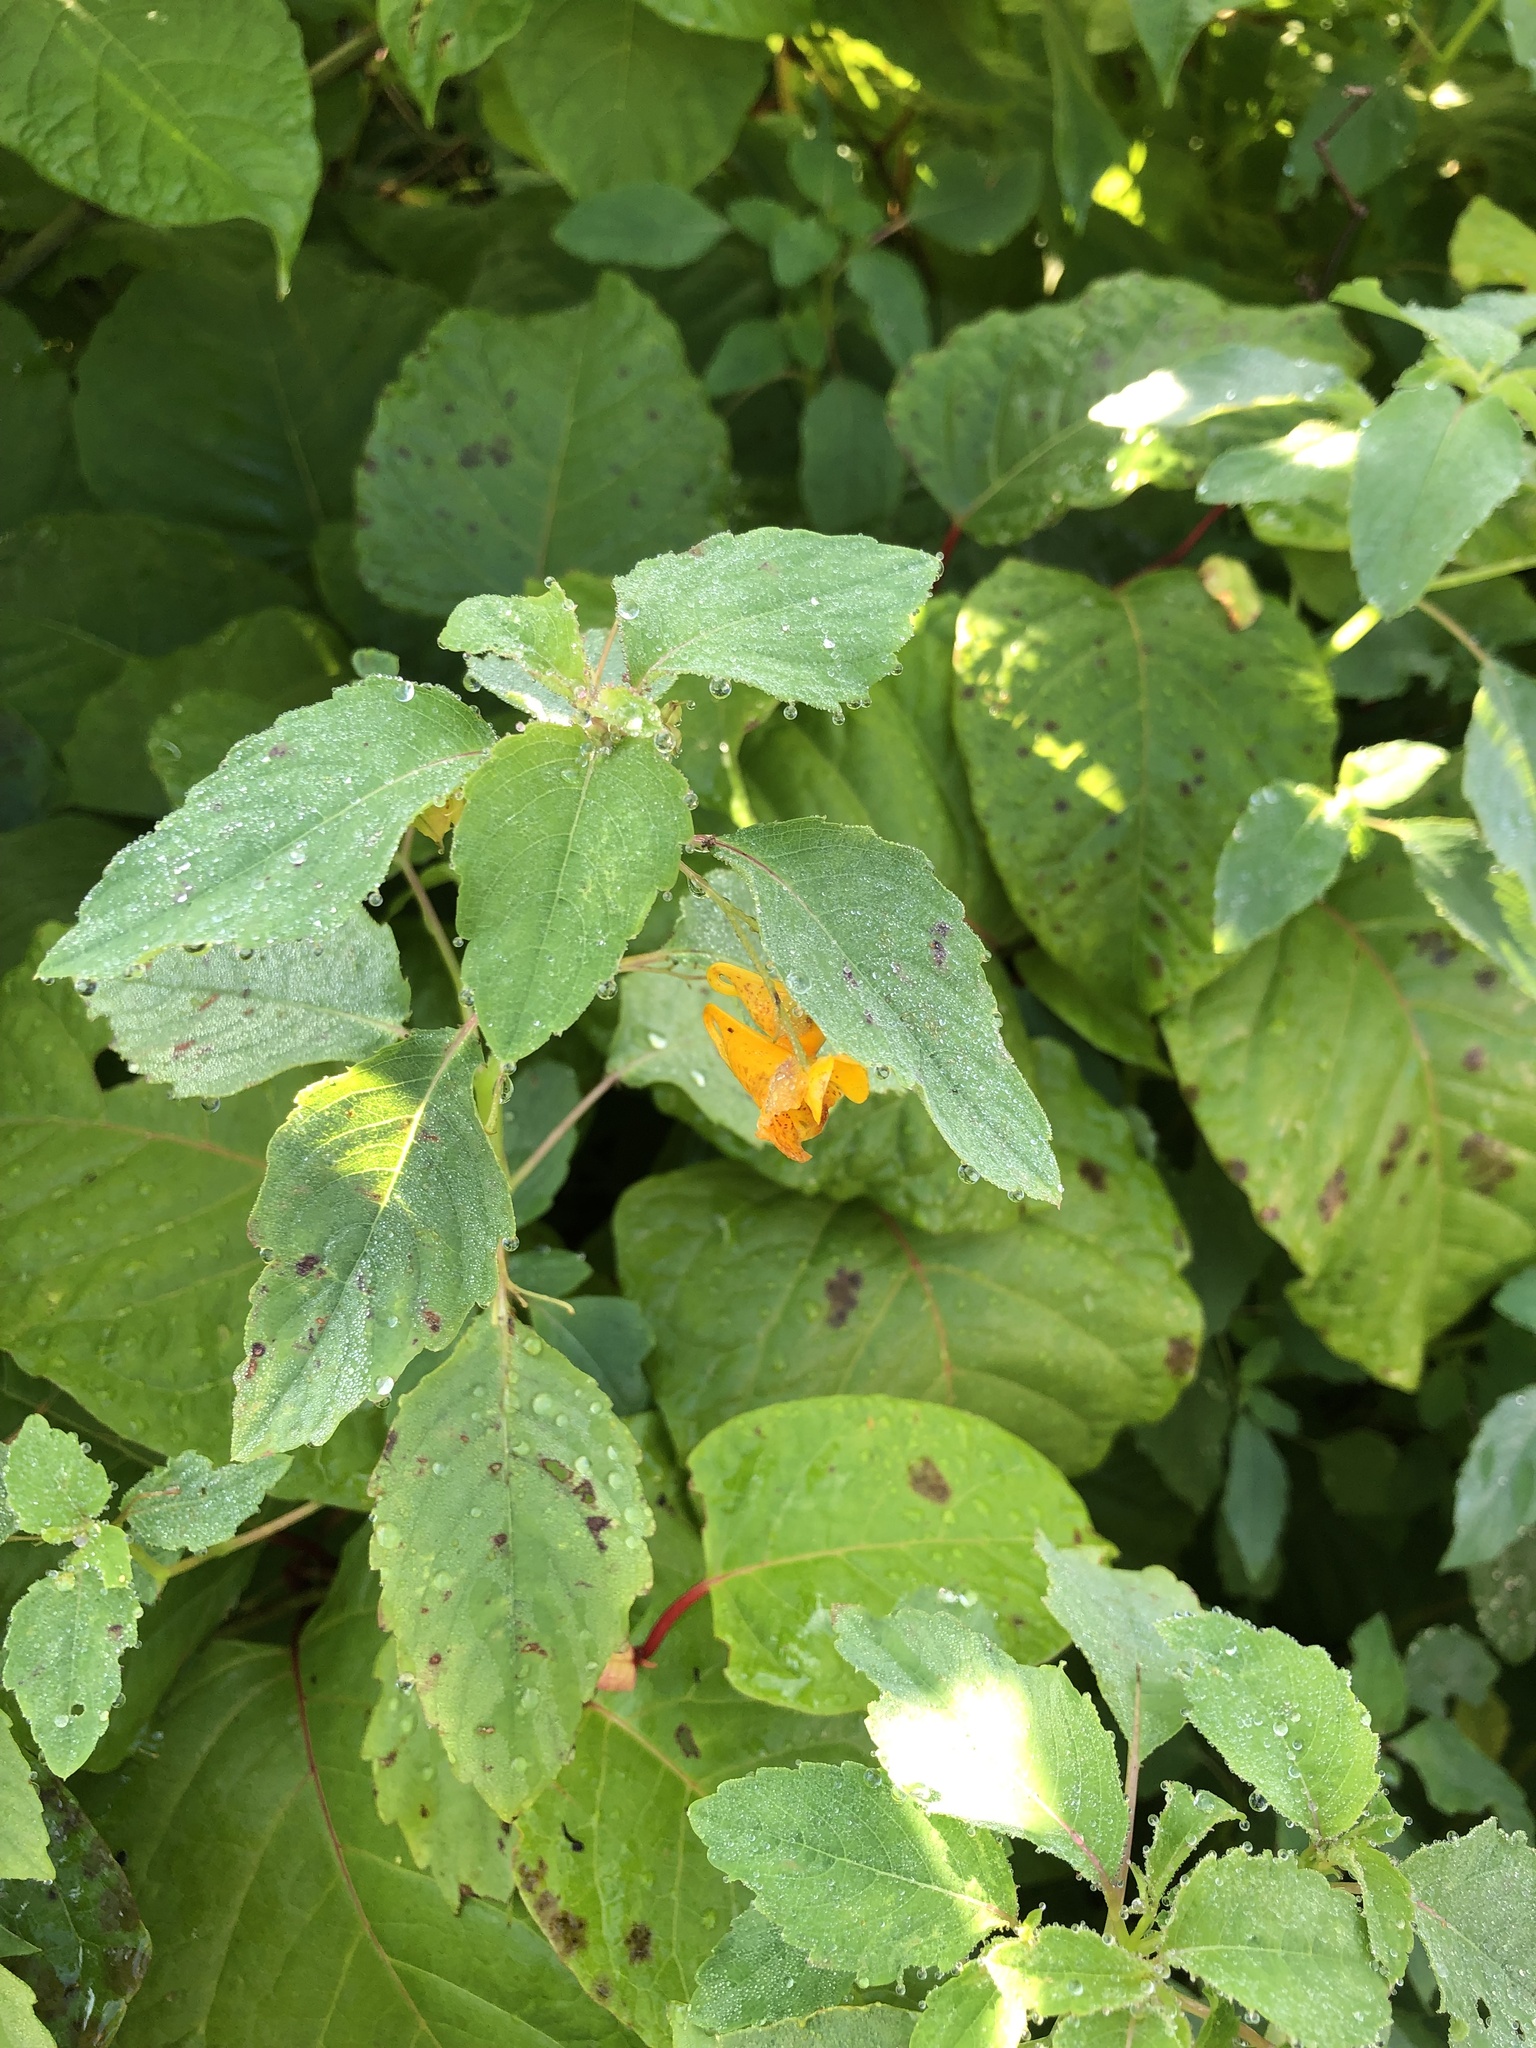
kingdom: Plantae
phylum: Tracheophyta
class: Magnoliopsida
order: Ericales
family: Balsaminaceae
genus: Impatiens
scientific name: Impatiens capensis
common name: Orange balsam
